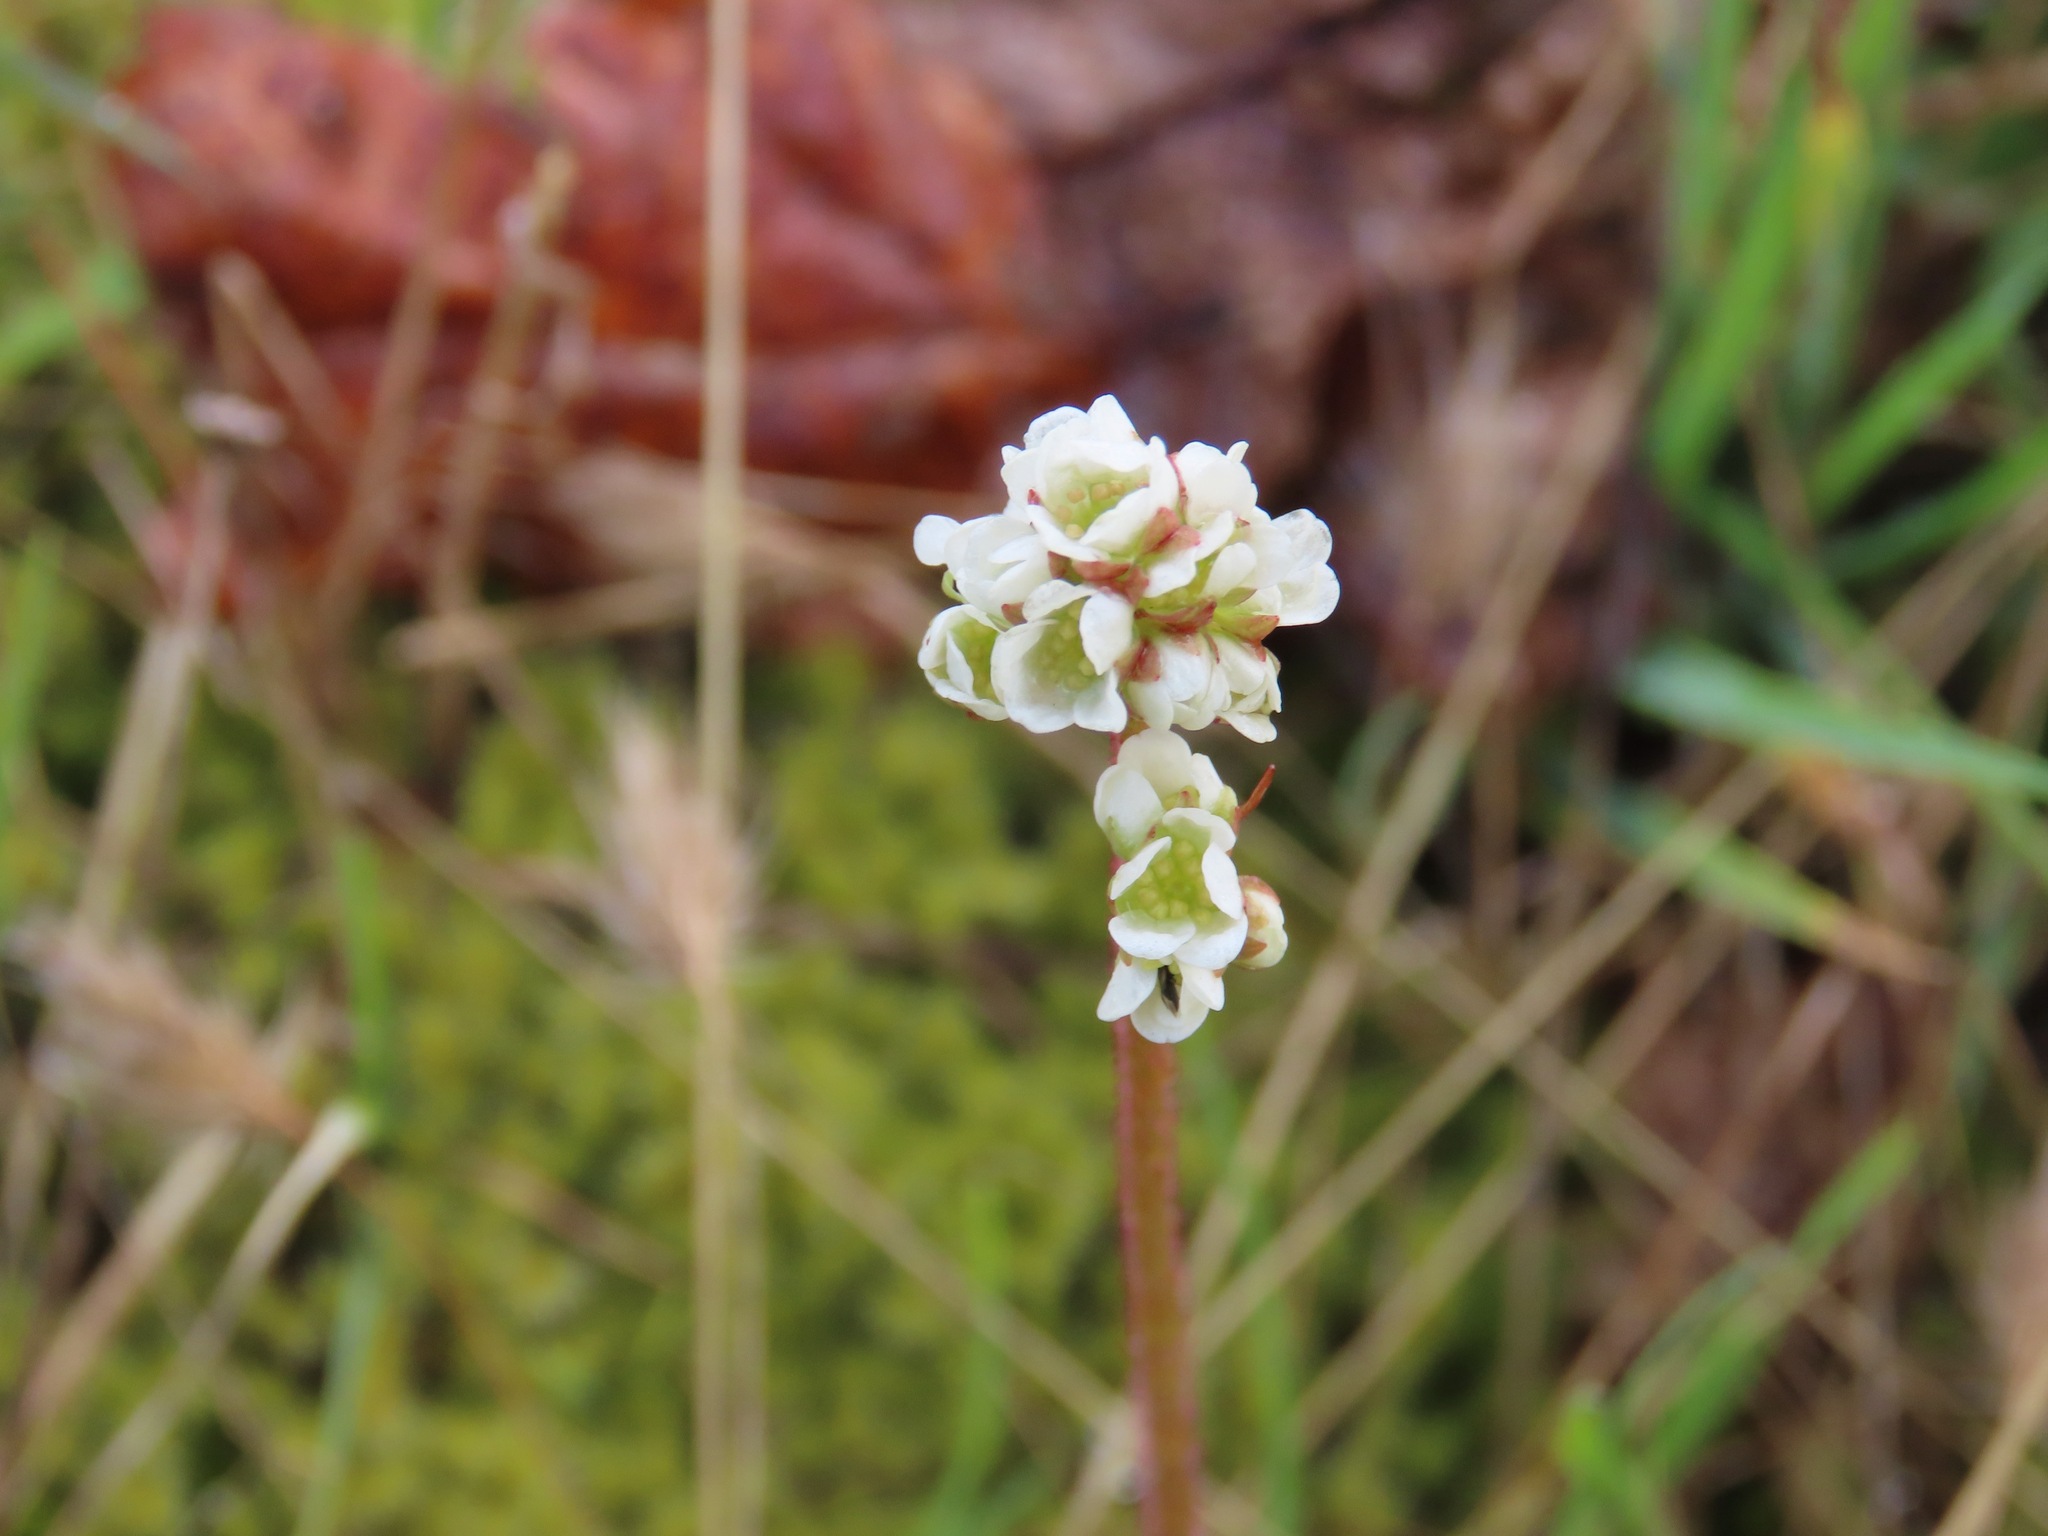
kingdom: Plantae
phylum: Tracheophyta
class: Magnoliopsida
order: Saxifragales
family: Saxifragaceae
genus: Micranthes
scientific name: Micranthes integrifolia
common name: Wholeleaf saxifrage
